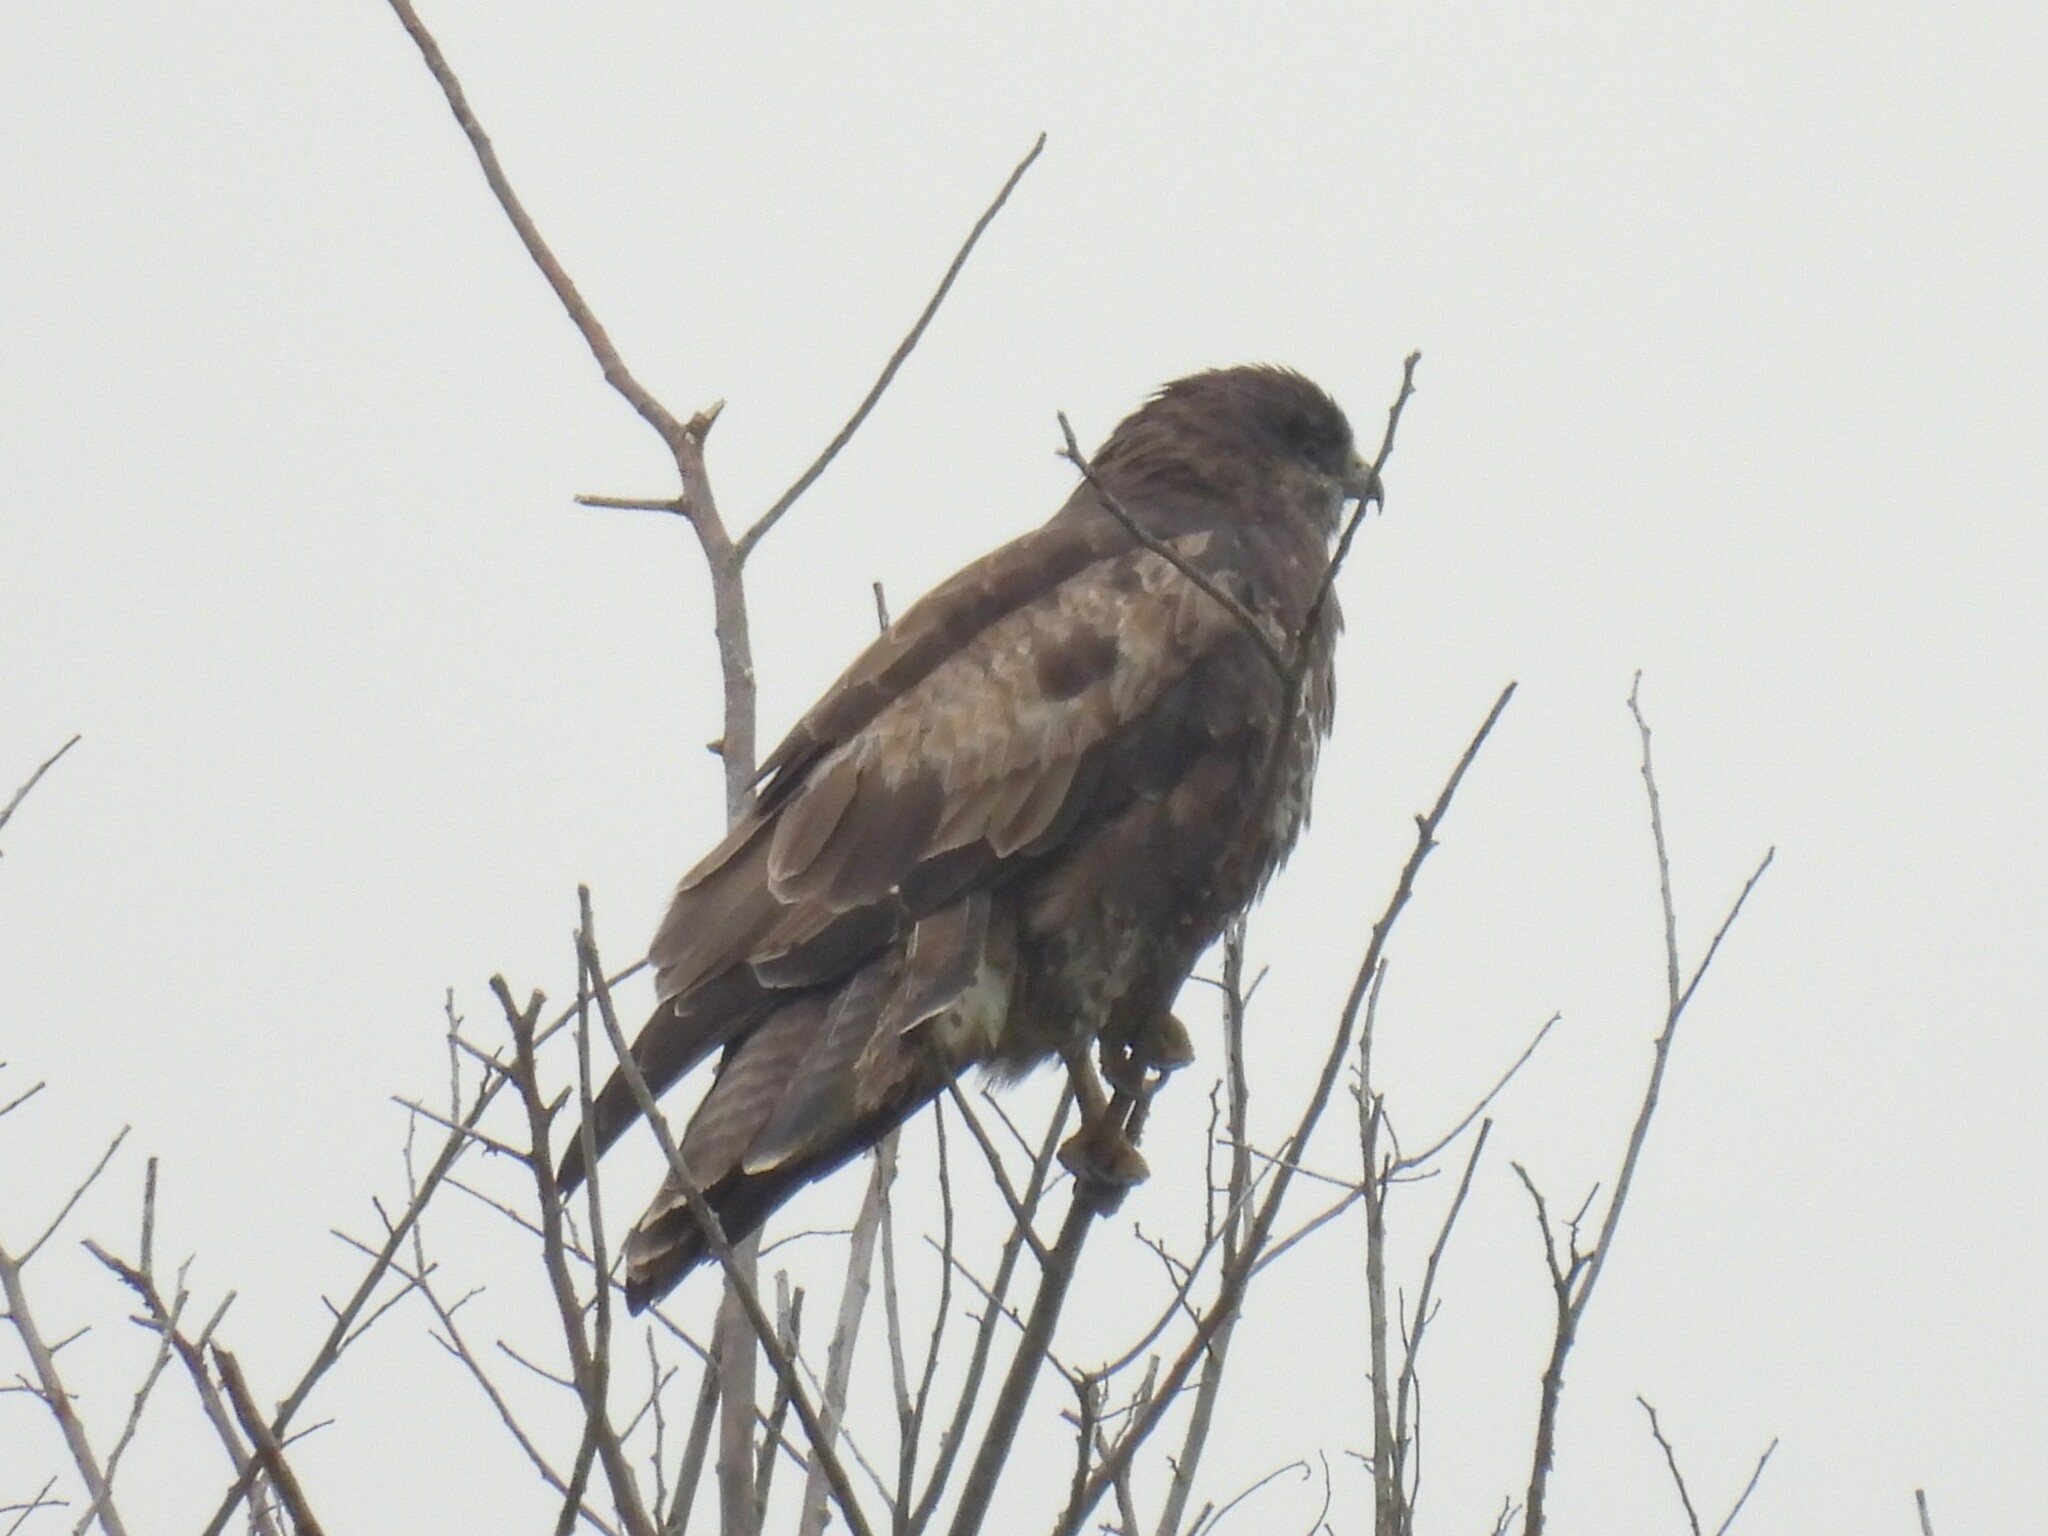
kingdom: Animalia
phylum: Chordata
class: Aves
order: Accipitriformes
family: Accipitridae
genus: Buteo
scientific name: Buteo buteo
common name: Common buzzard
